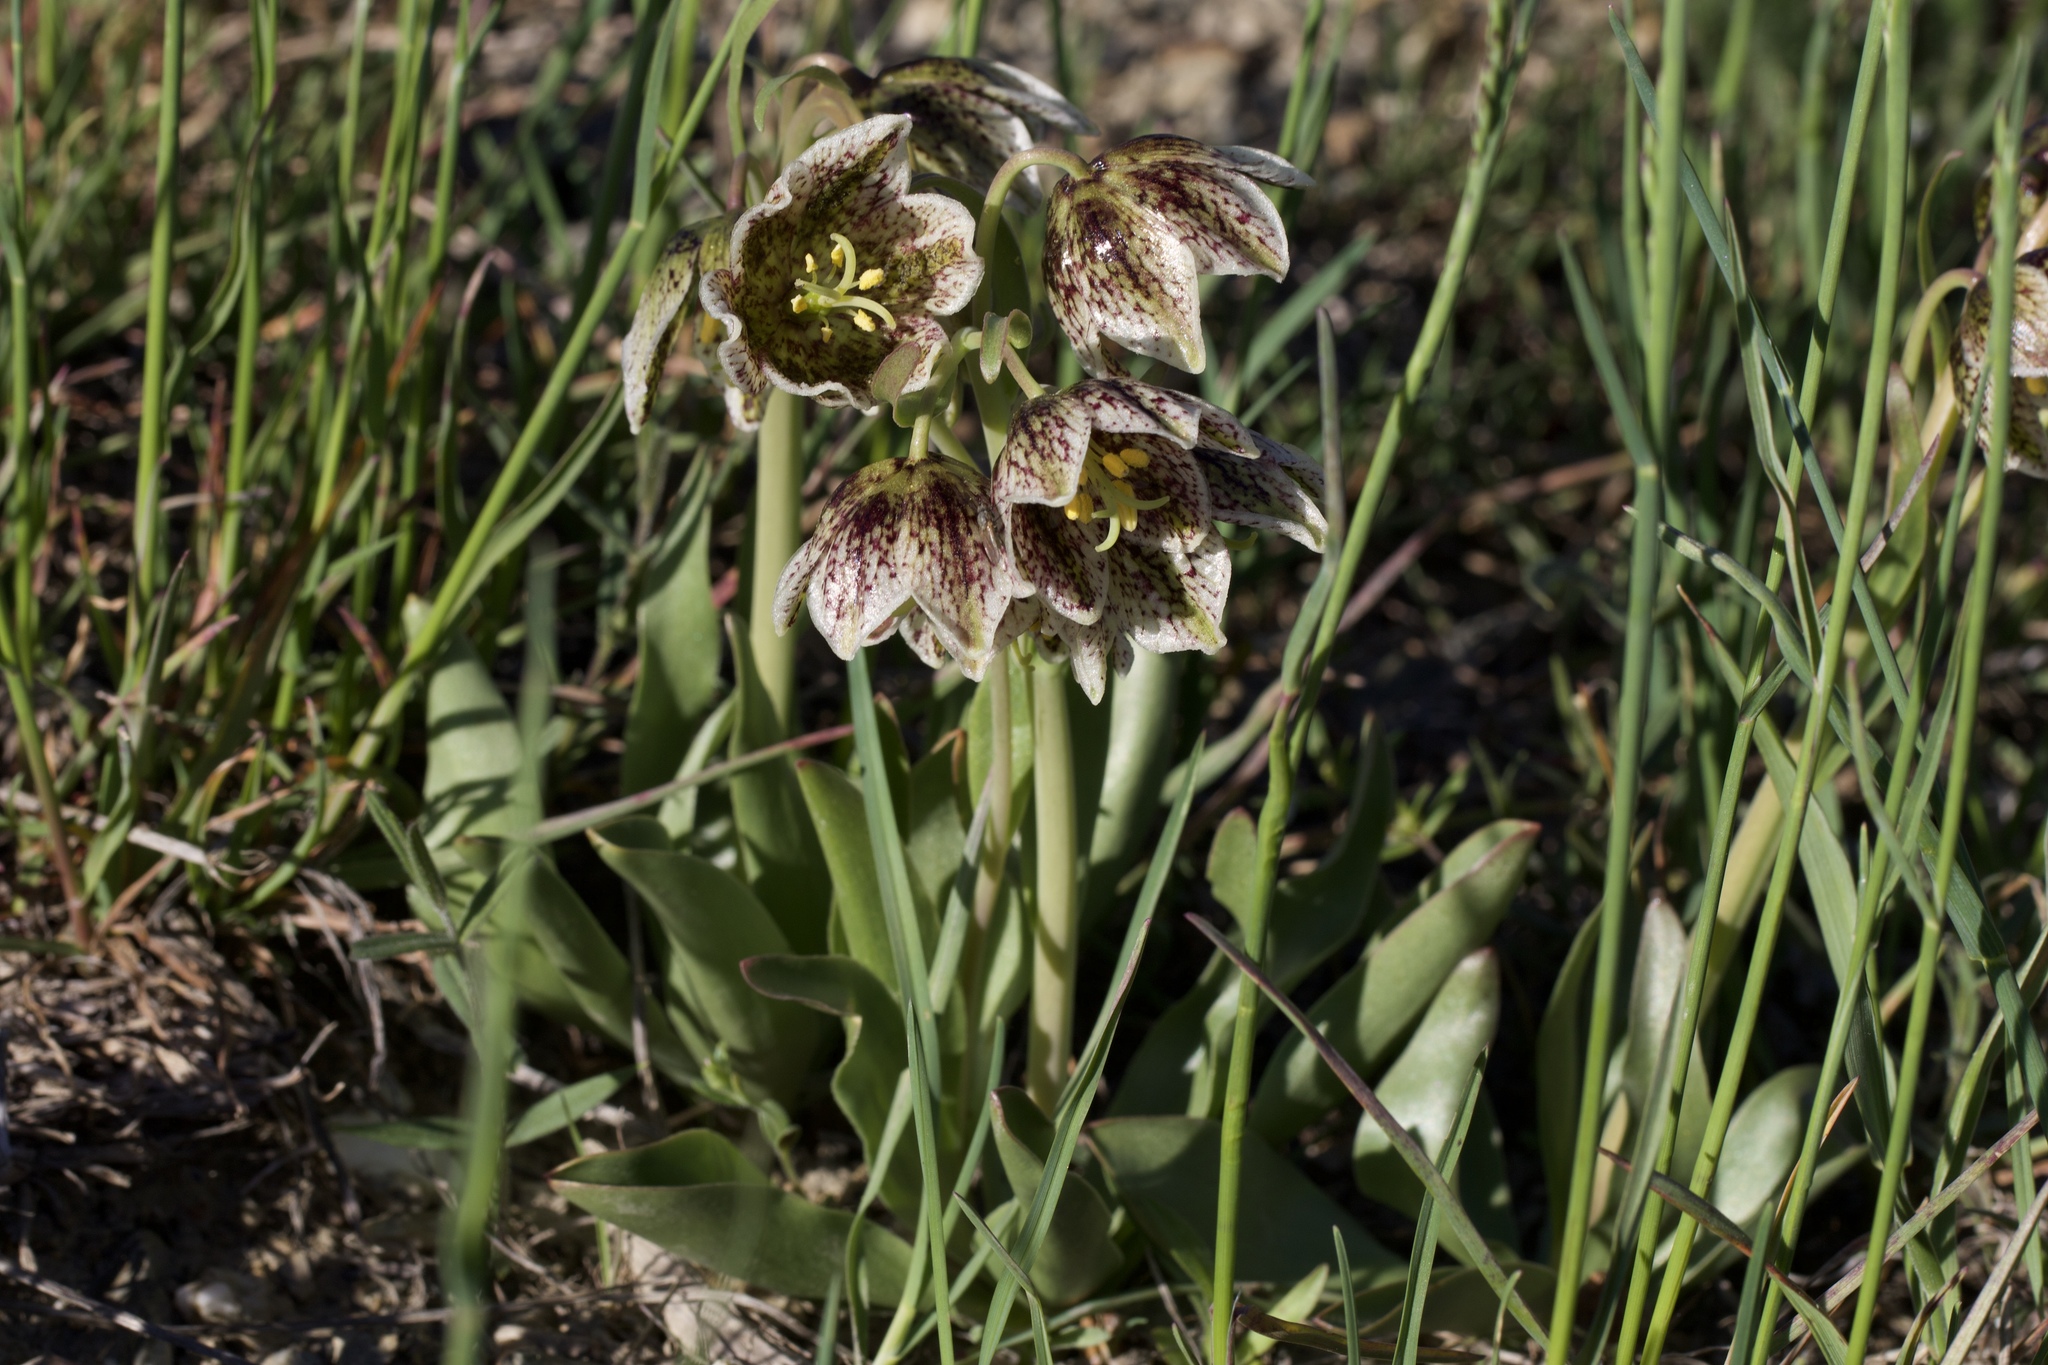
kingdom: Plantae
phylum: Tracheophyta
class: Liliopsida
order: Liliales
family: Liliaceae
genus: Fritillaria
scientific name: Fritillaria purdyi
